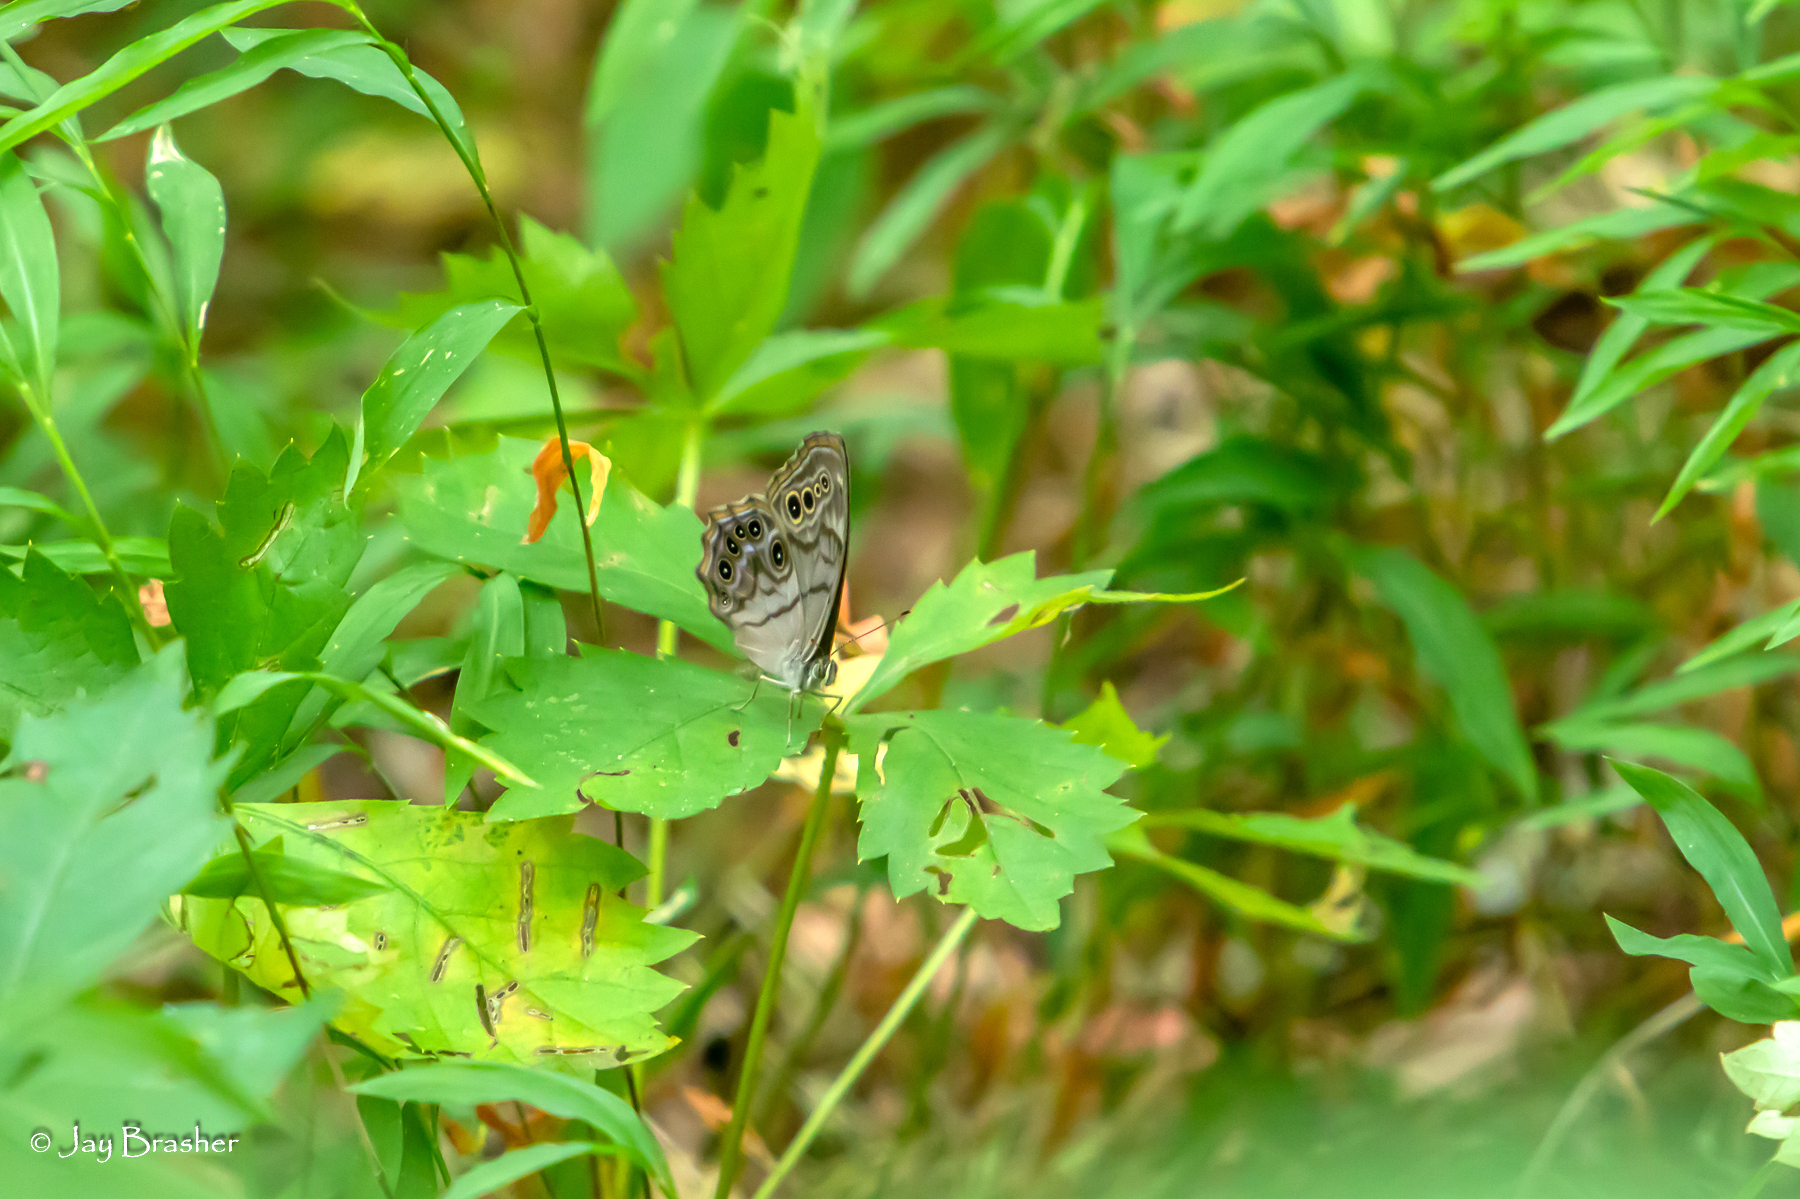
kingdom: Animalia
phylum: Arthropoda
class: Insecta
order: Lepidoptera
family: Nymphalidae
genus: Lethe
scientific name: Lethe anthedon
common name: Northern pearly-eye
